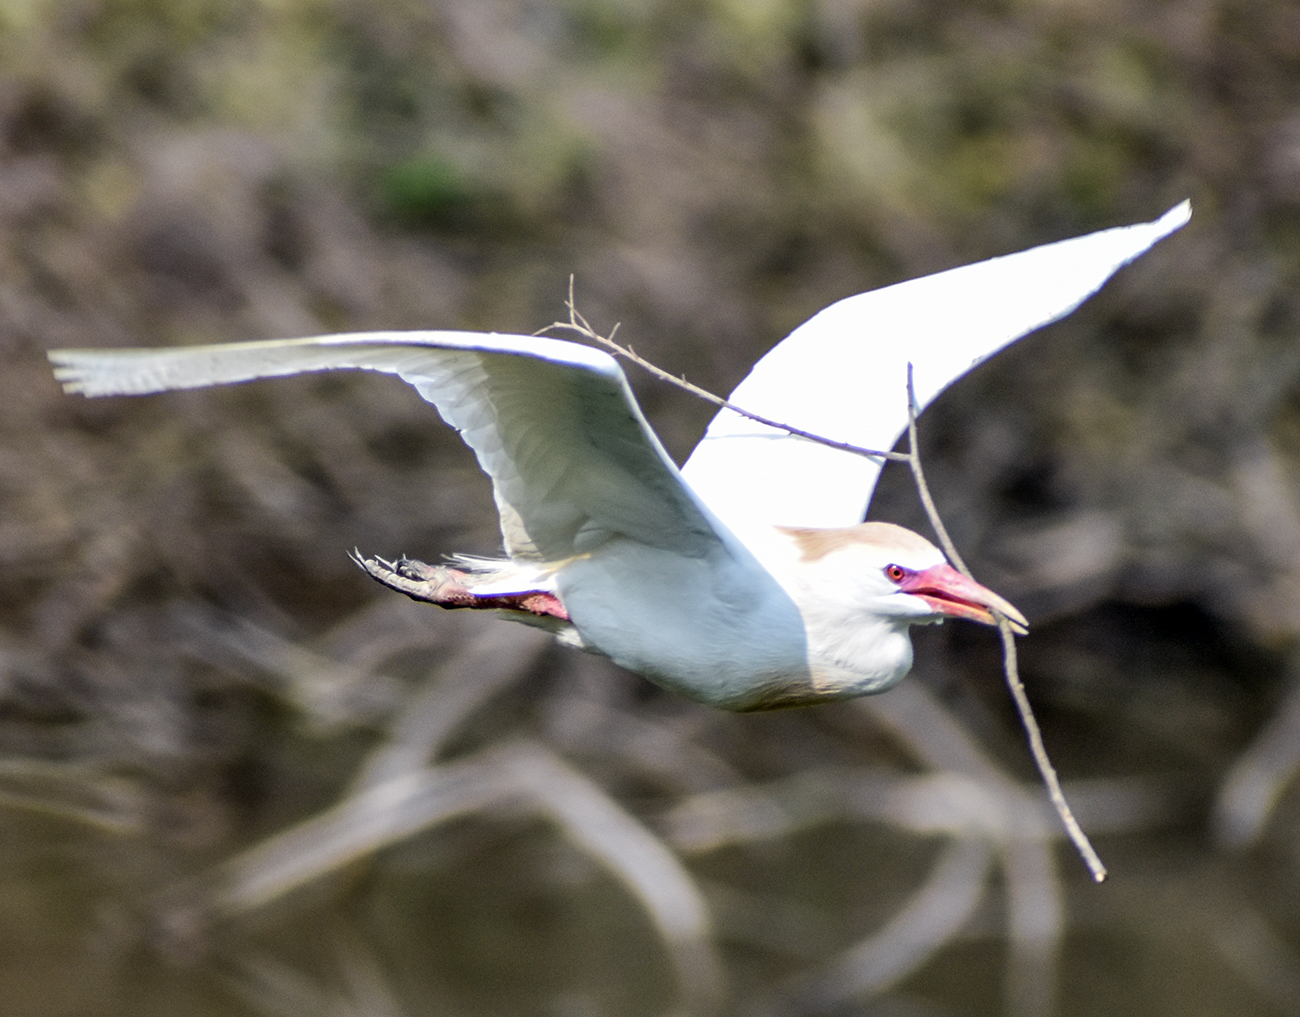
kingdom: Animalia
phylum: Chordata
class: Aves
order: Pelecaniformes
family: Ardeidae
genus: Bubulcus
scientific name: Bubulcus ibis
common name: Cattle egret
